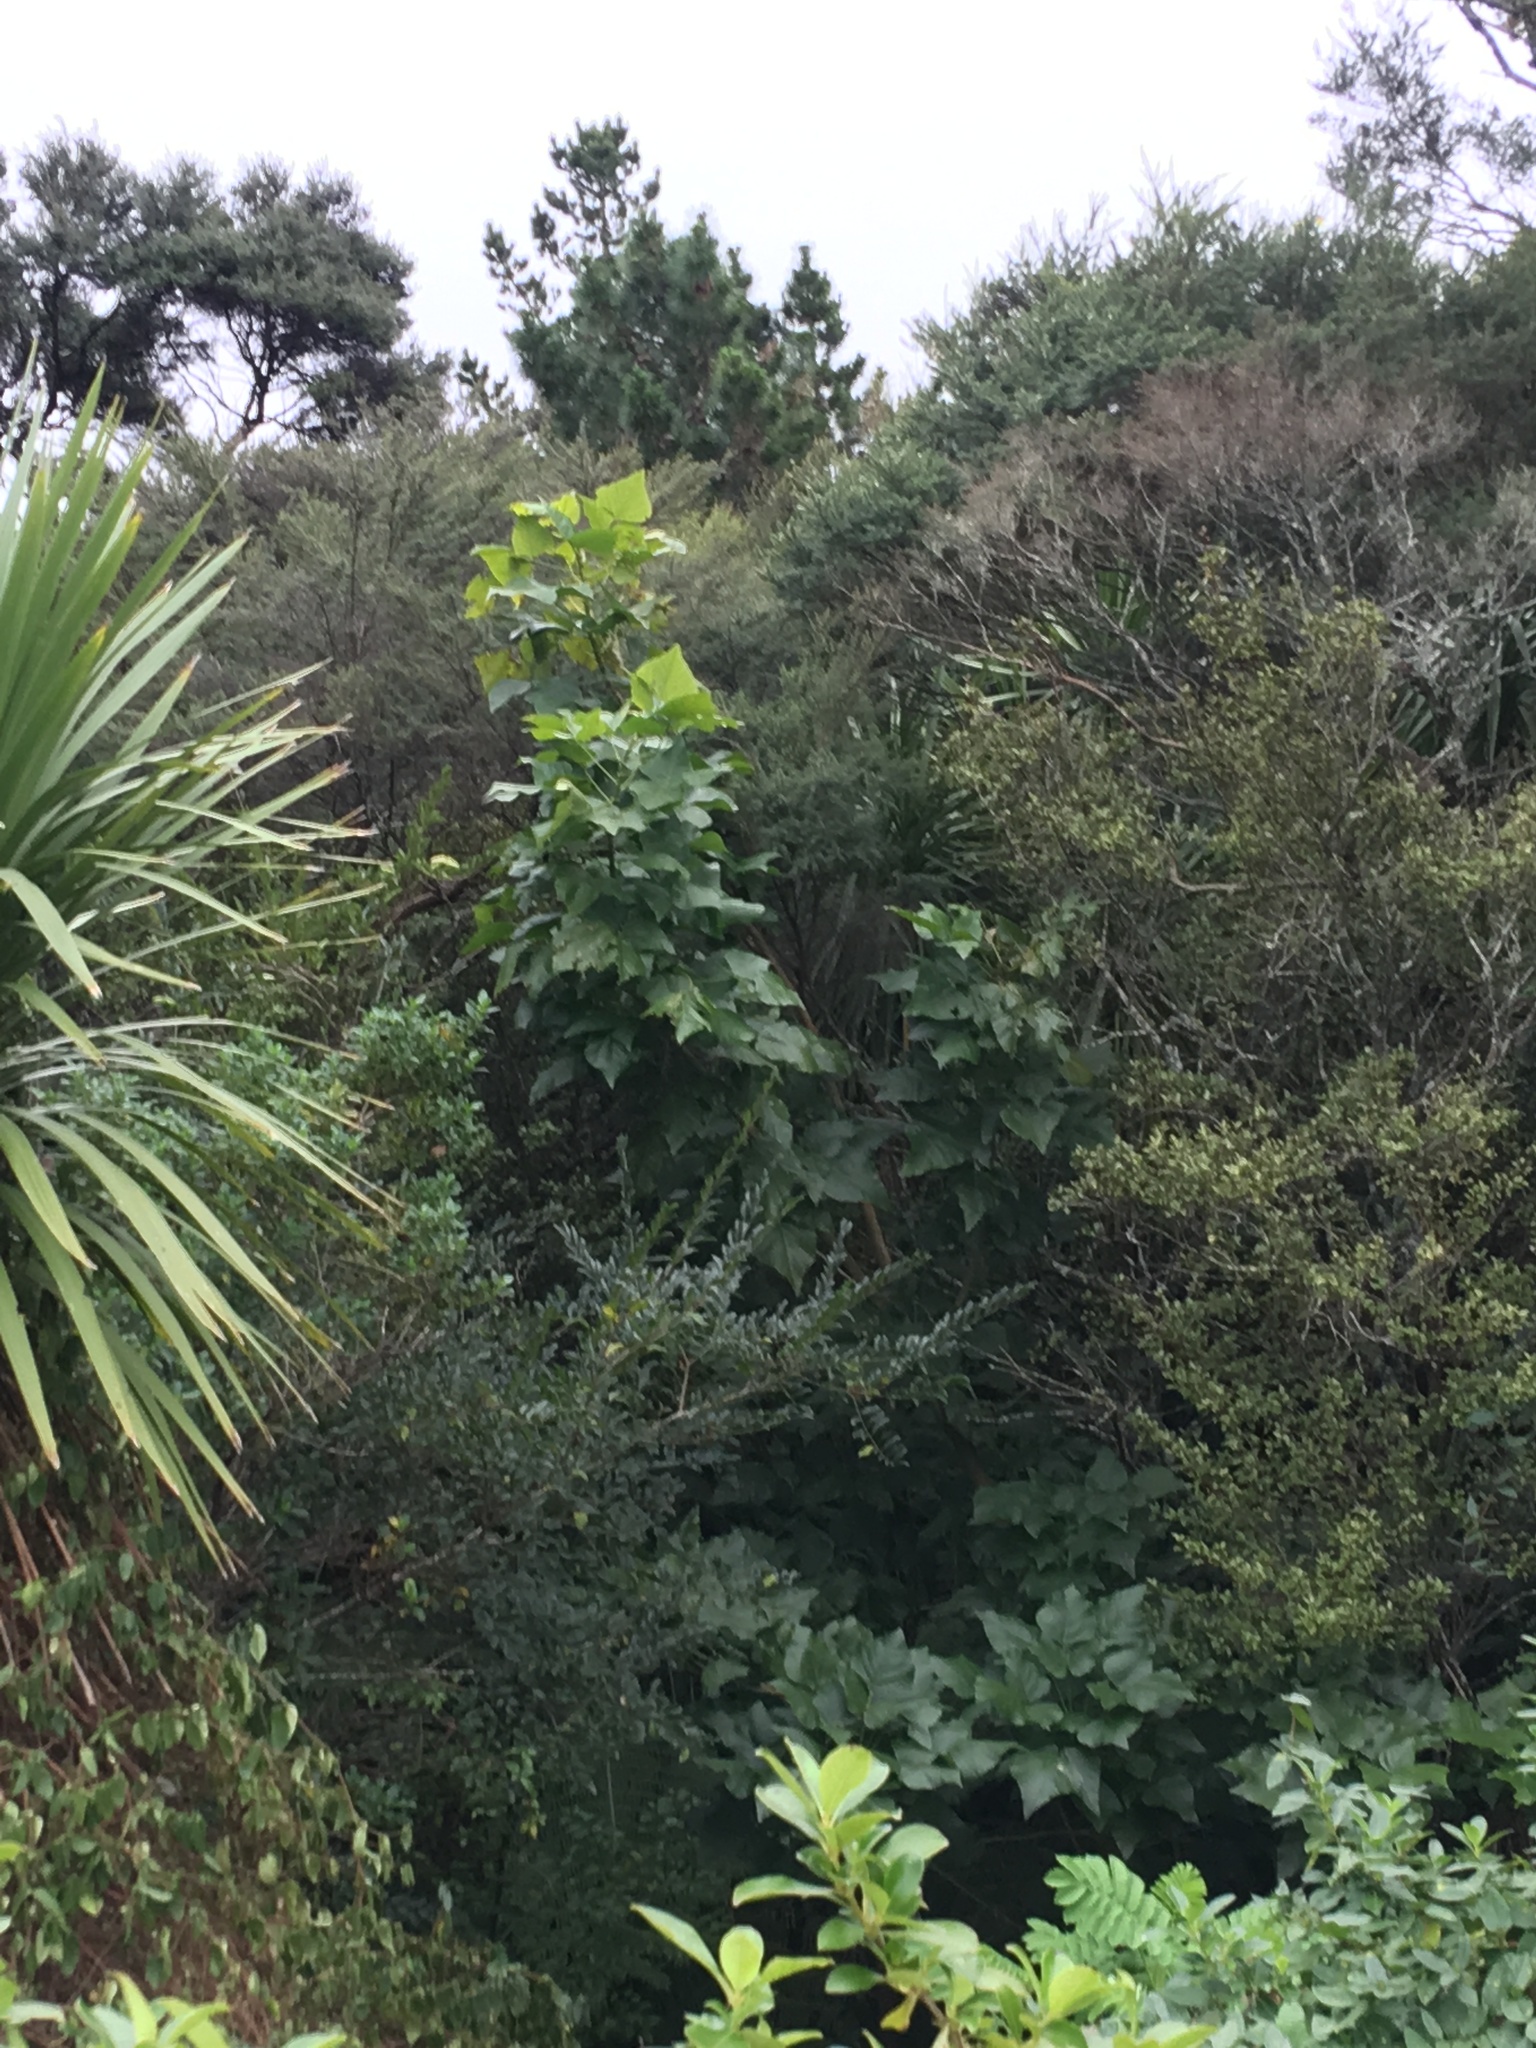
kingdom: Plantae
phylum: Tracheophyta
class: Magnoliopsida
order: Lamiales
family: Oleaceae
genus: Ligustrum
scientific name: Ligustrum sinense
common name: Chinese privet
